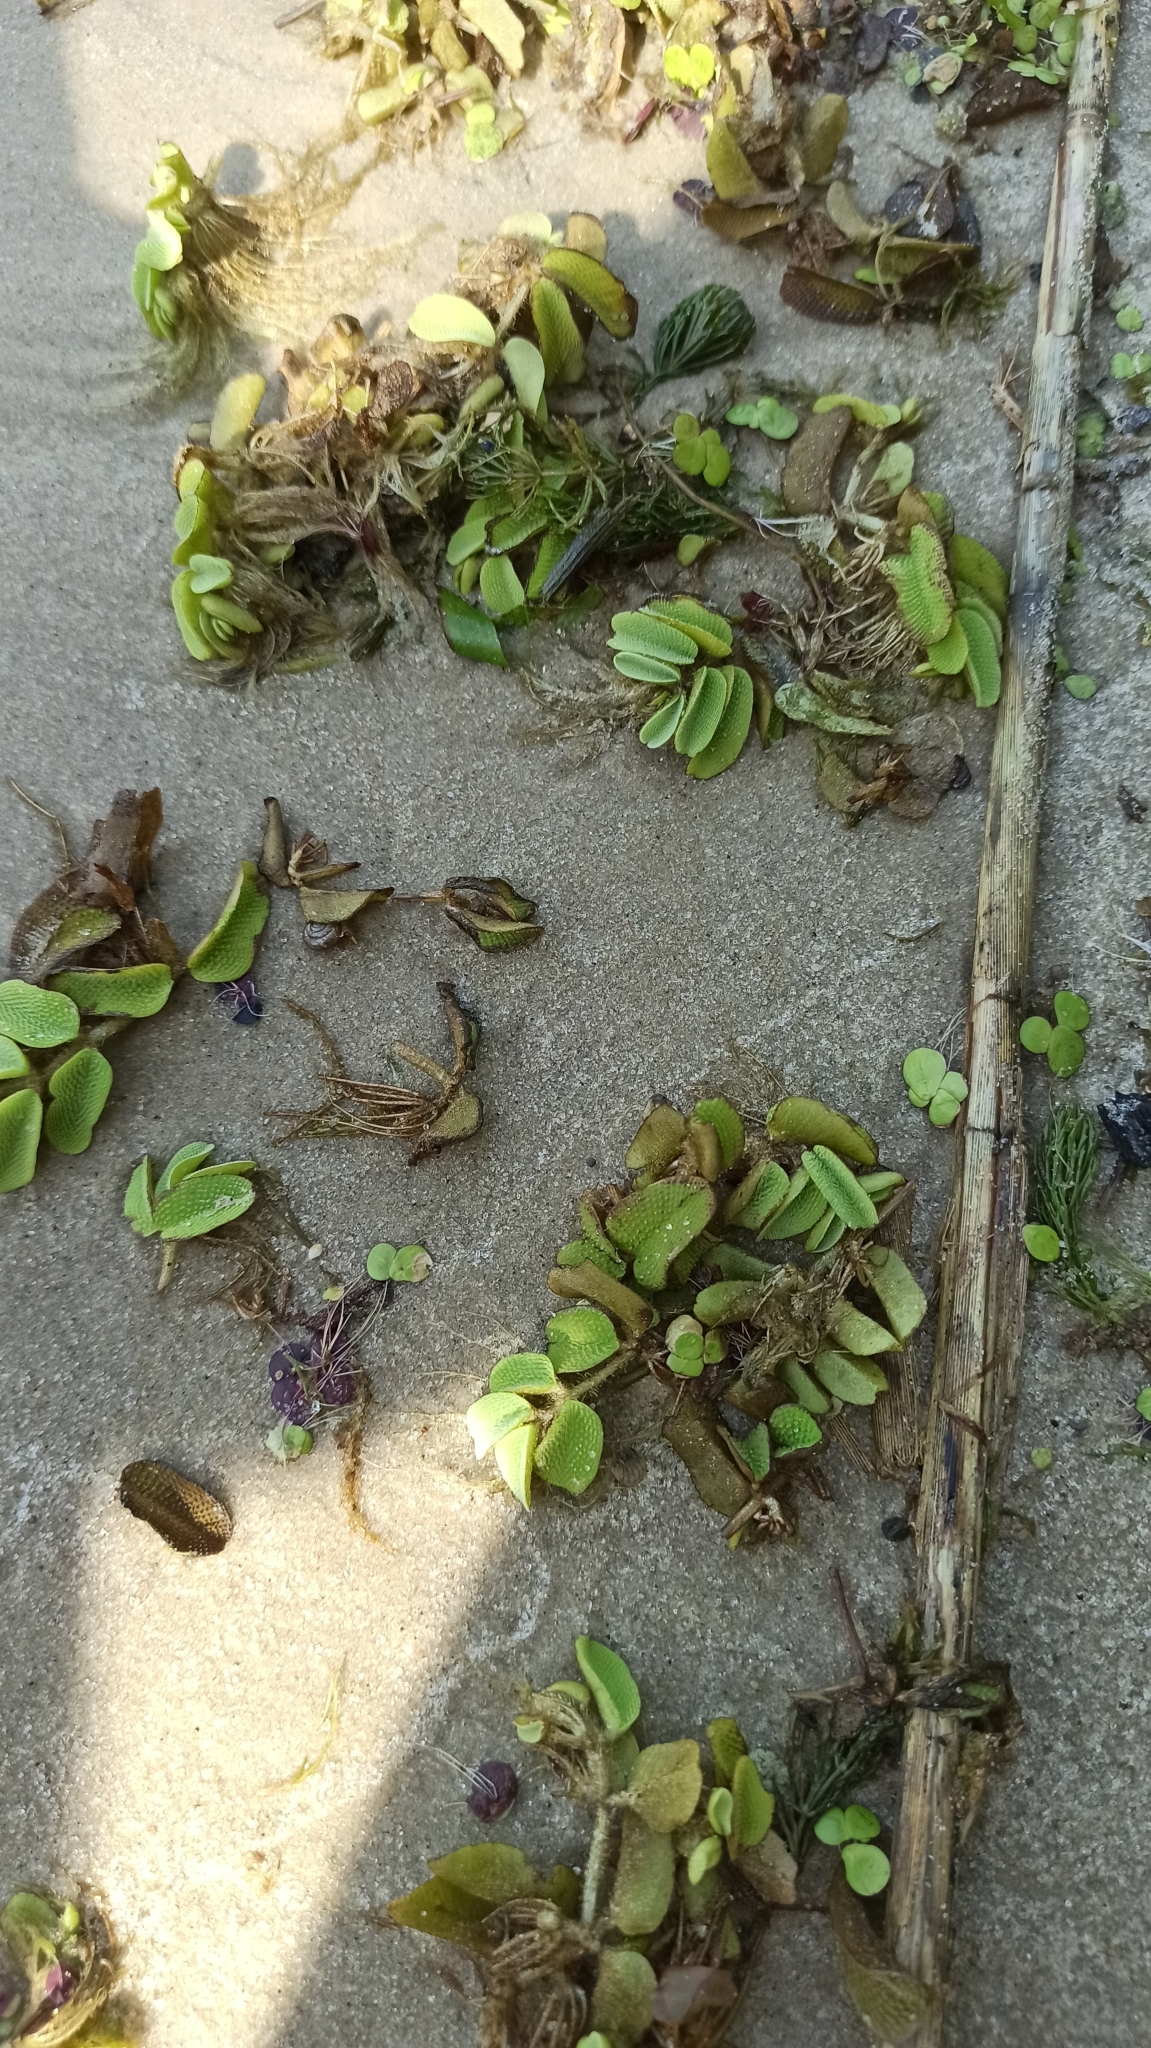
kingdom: Plantae
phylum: Tracheophyta
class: Polypodiopsida
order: Salviniales
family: Salviniaceae
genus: Salvinia
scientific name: Salvinia natans
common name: Floating fern
